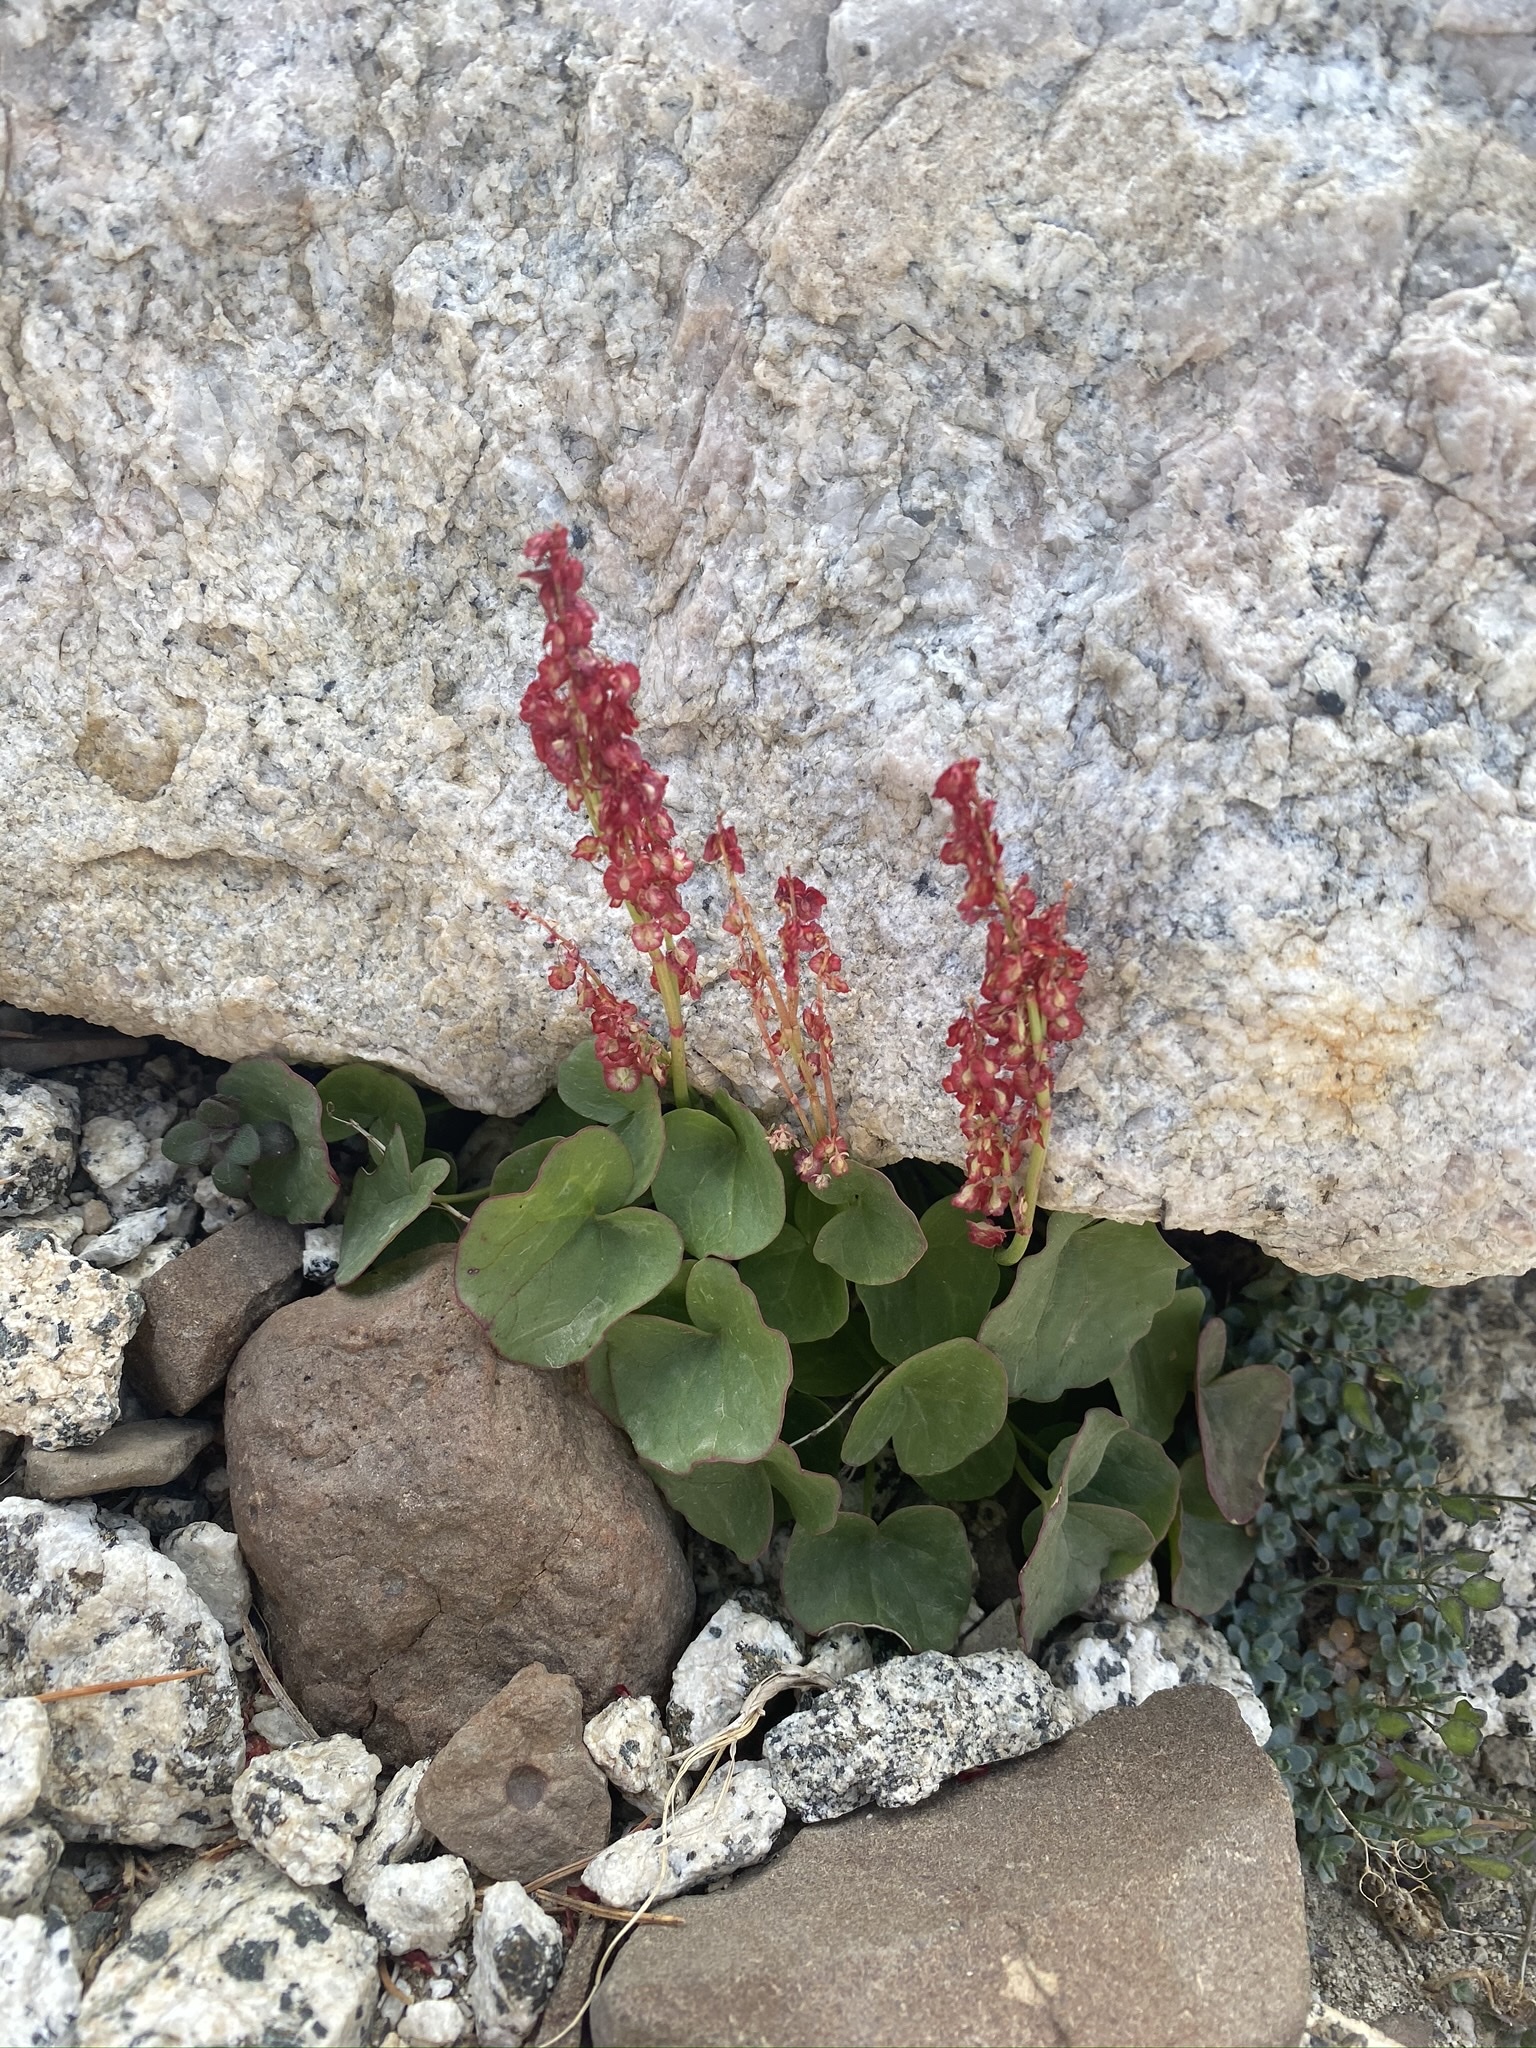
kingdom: Plantae
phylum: Tracheophyta
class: Magnoliopsida
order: Caryophyllales
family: Polygonaceae
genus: Oxyria
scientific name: Oxyria digyna
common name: Alpine mountain-sorrel
